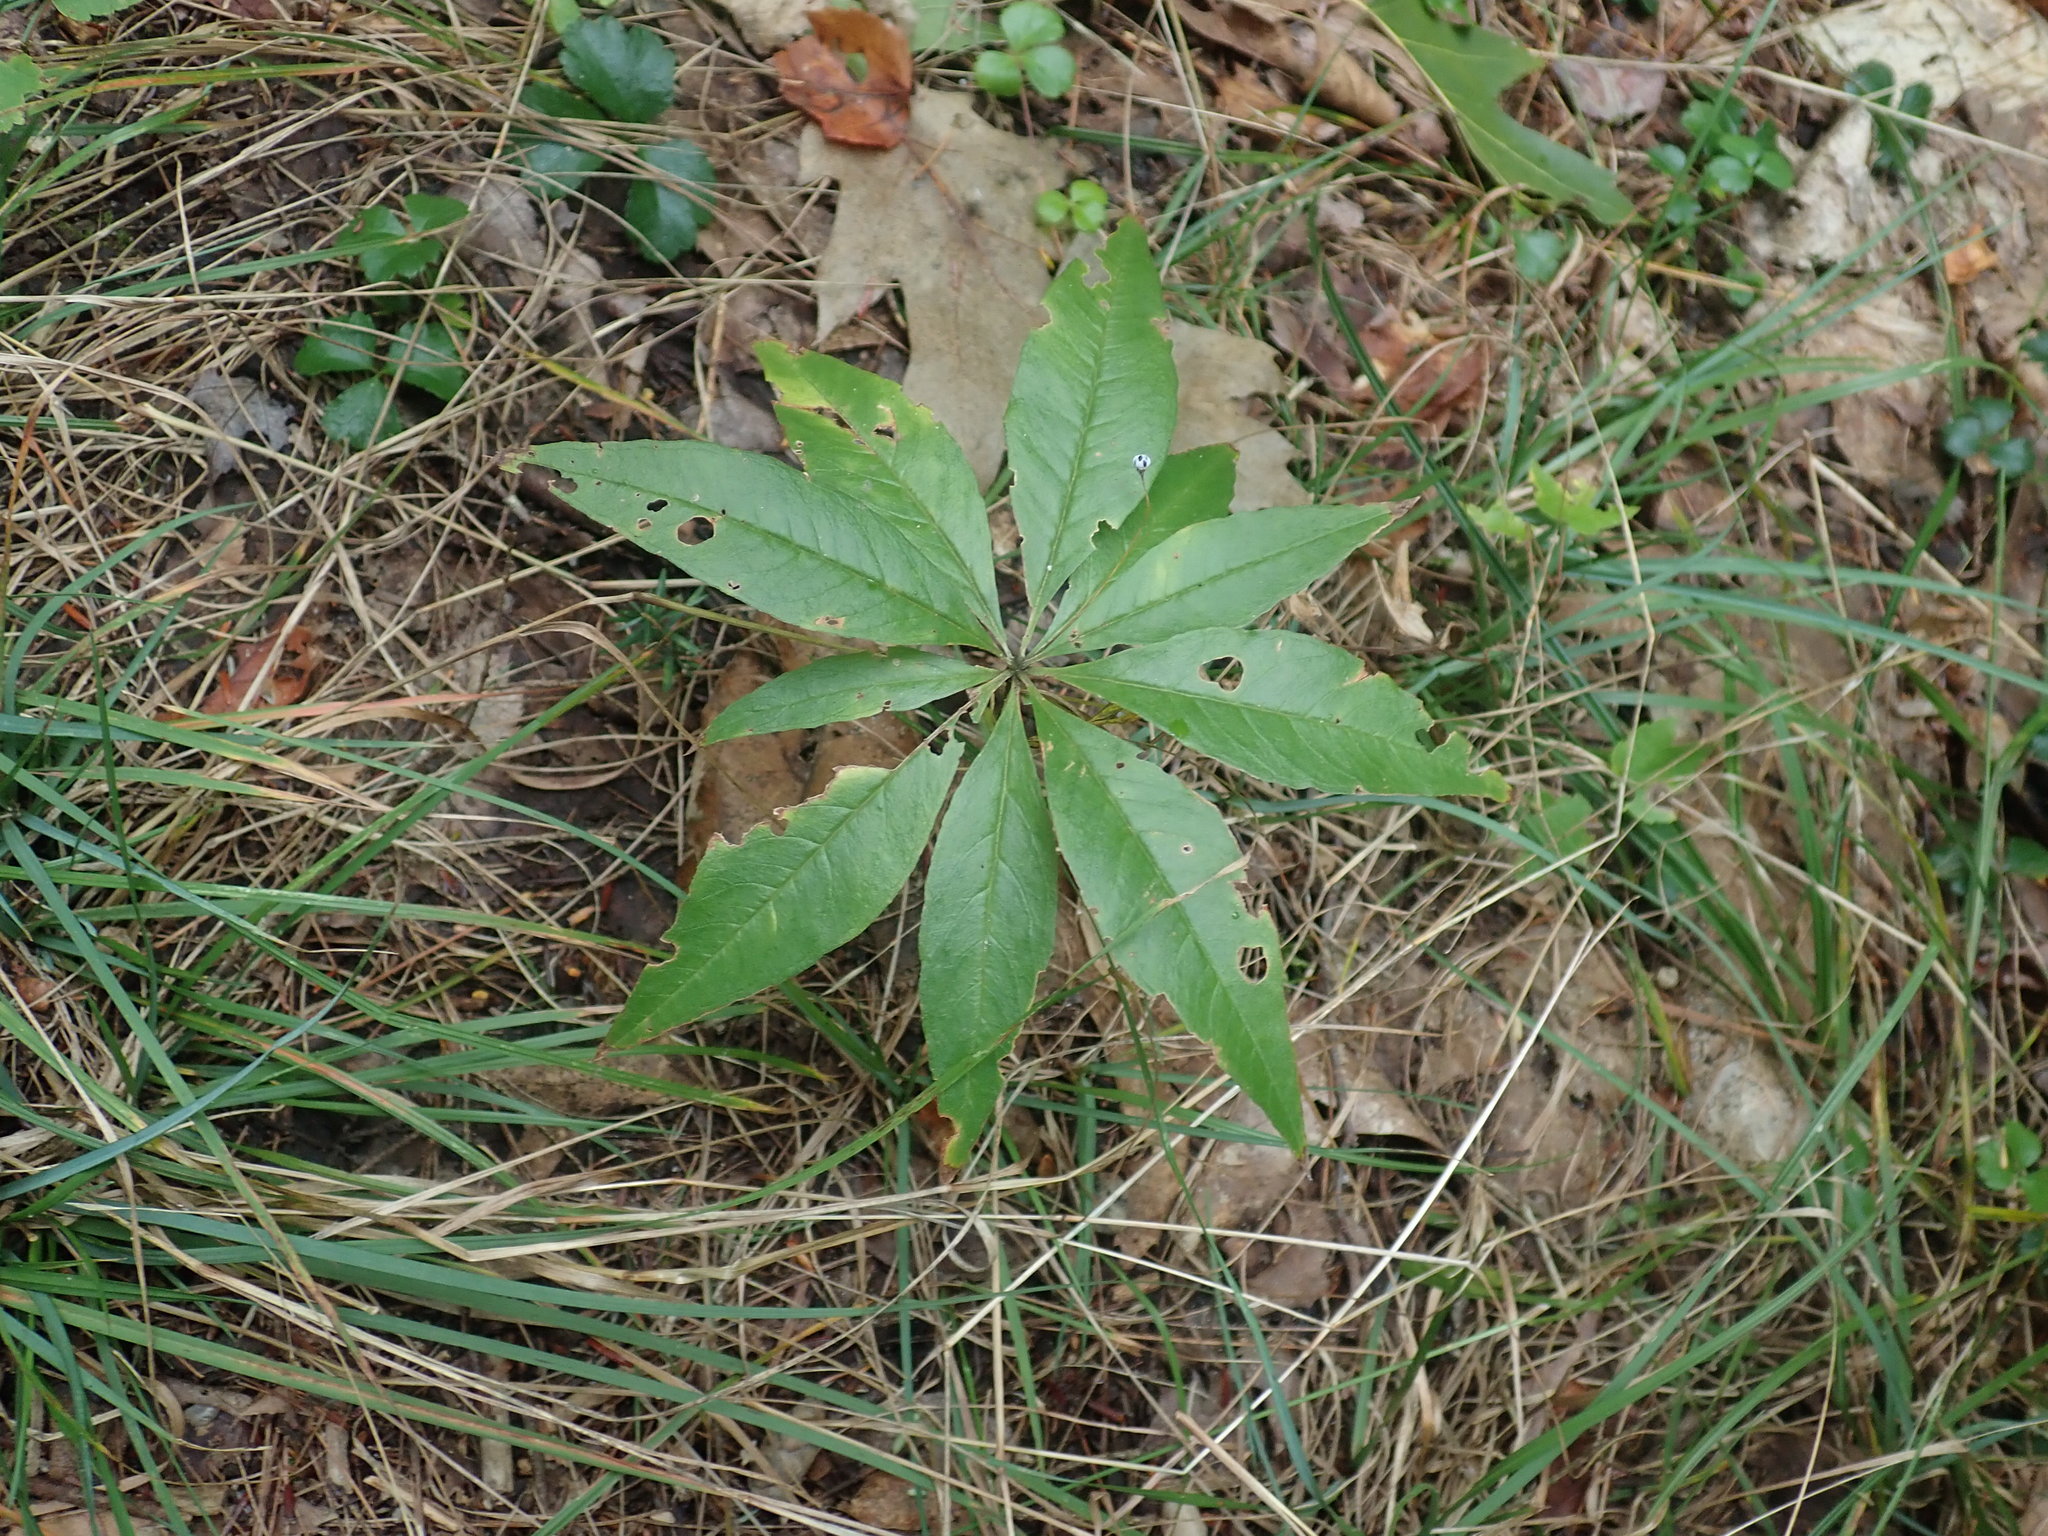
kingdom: Plantae
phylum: Tracheophyta
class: Magnoliopsida
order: Ericales
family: Primulaceae
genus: Lysimachia
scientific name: Lysimachia borealis
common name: American starflower
